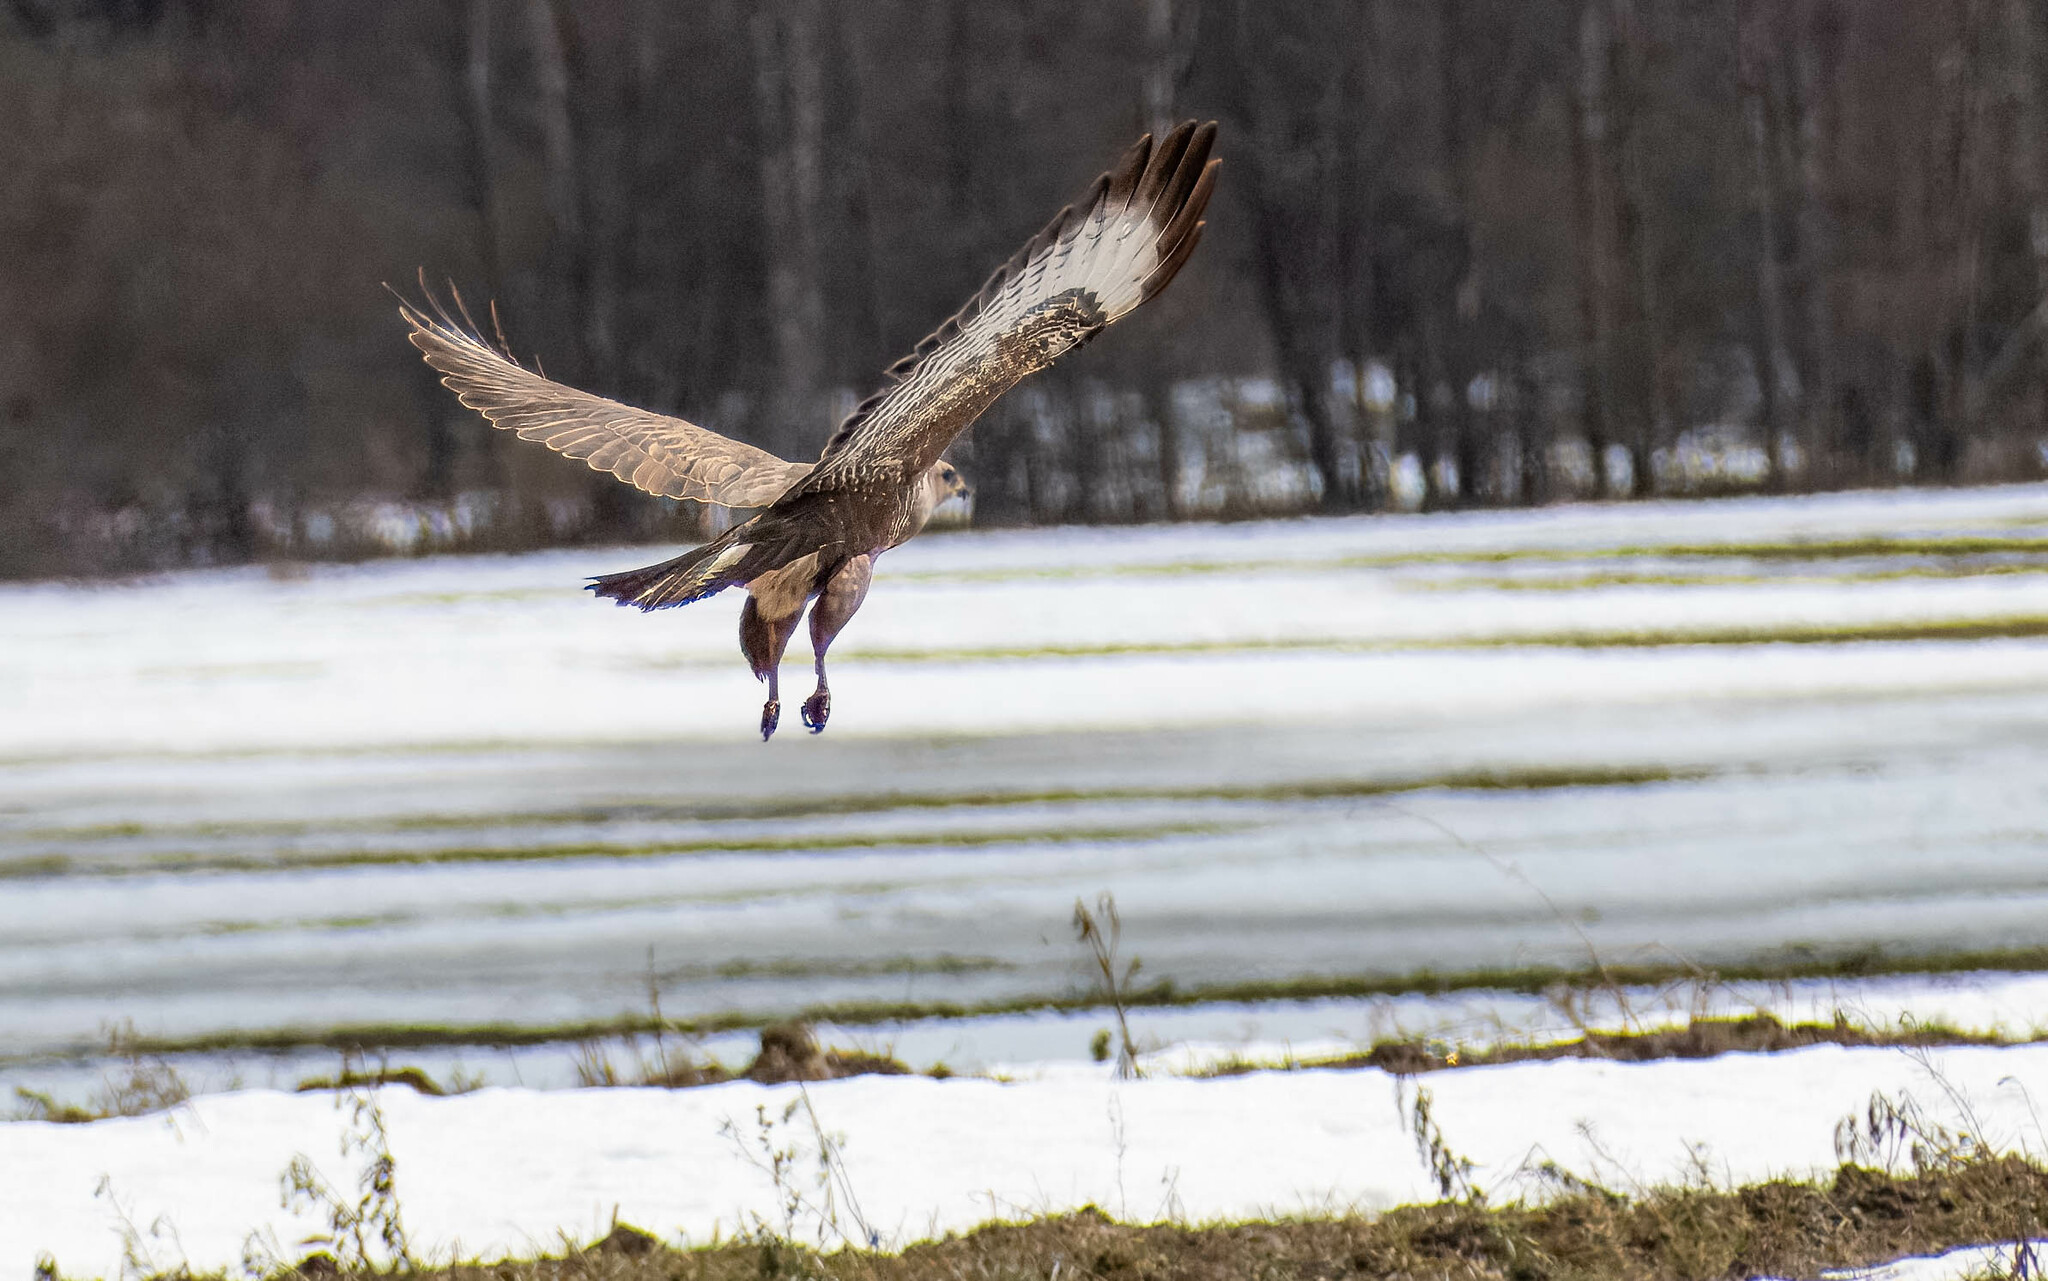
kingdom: Animalia
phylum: Chordata
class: Aves
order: Accipitriformes
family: Accipitridae
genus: Buteo
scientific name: Buteo buteo
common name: Common buzzard
